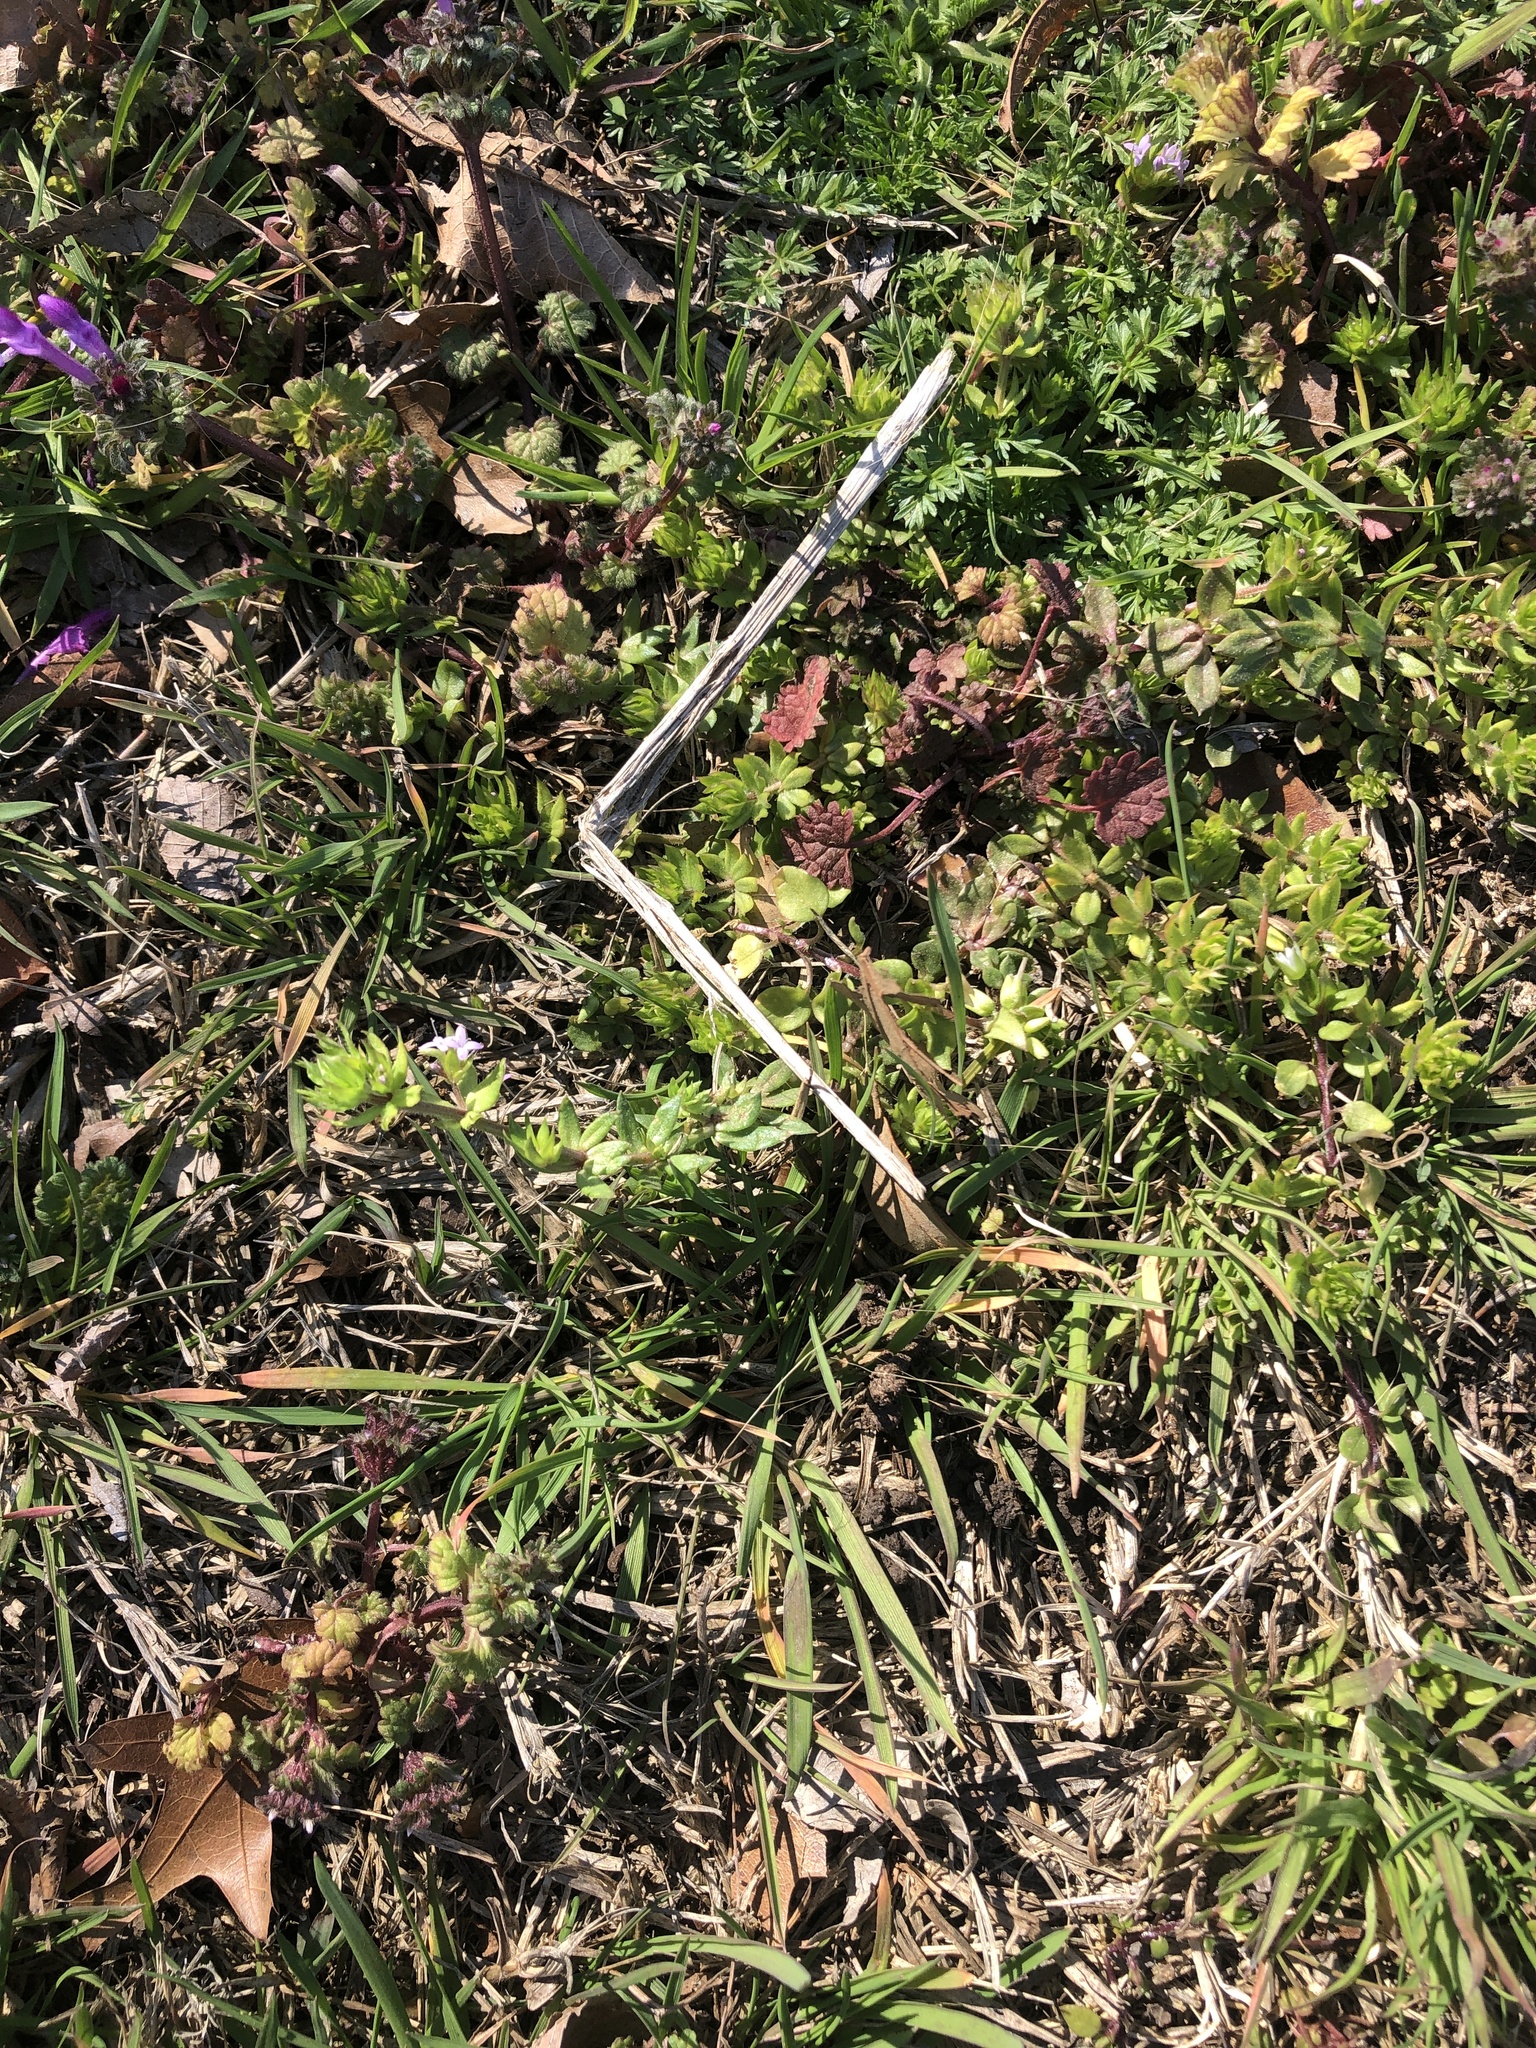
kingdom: Plantae
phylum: Tracheophyta
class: Magnoliopsida
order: Gentianales
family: Rubiaceae
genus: Sherardia
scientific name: Sherardia arvensis
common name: Field madder
